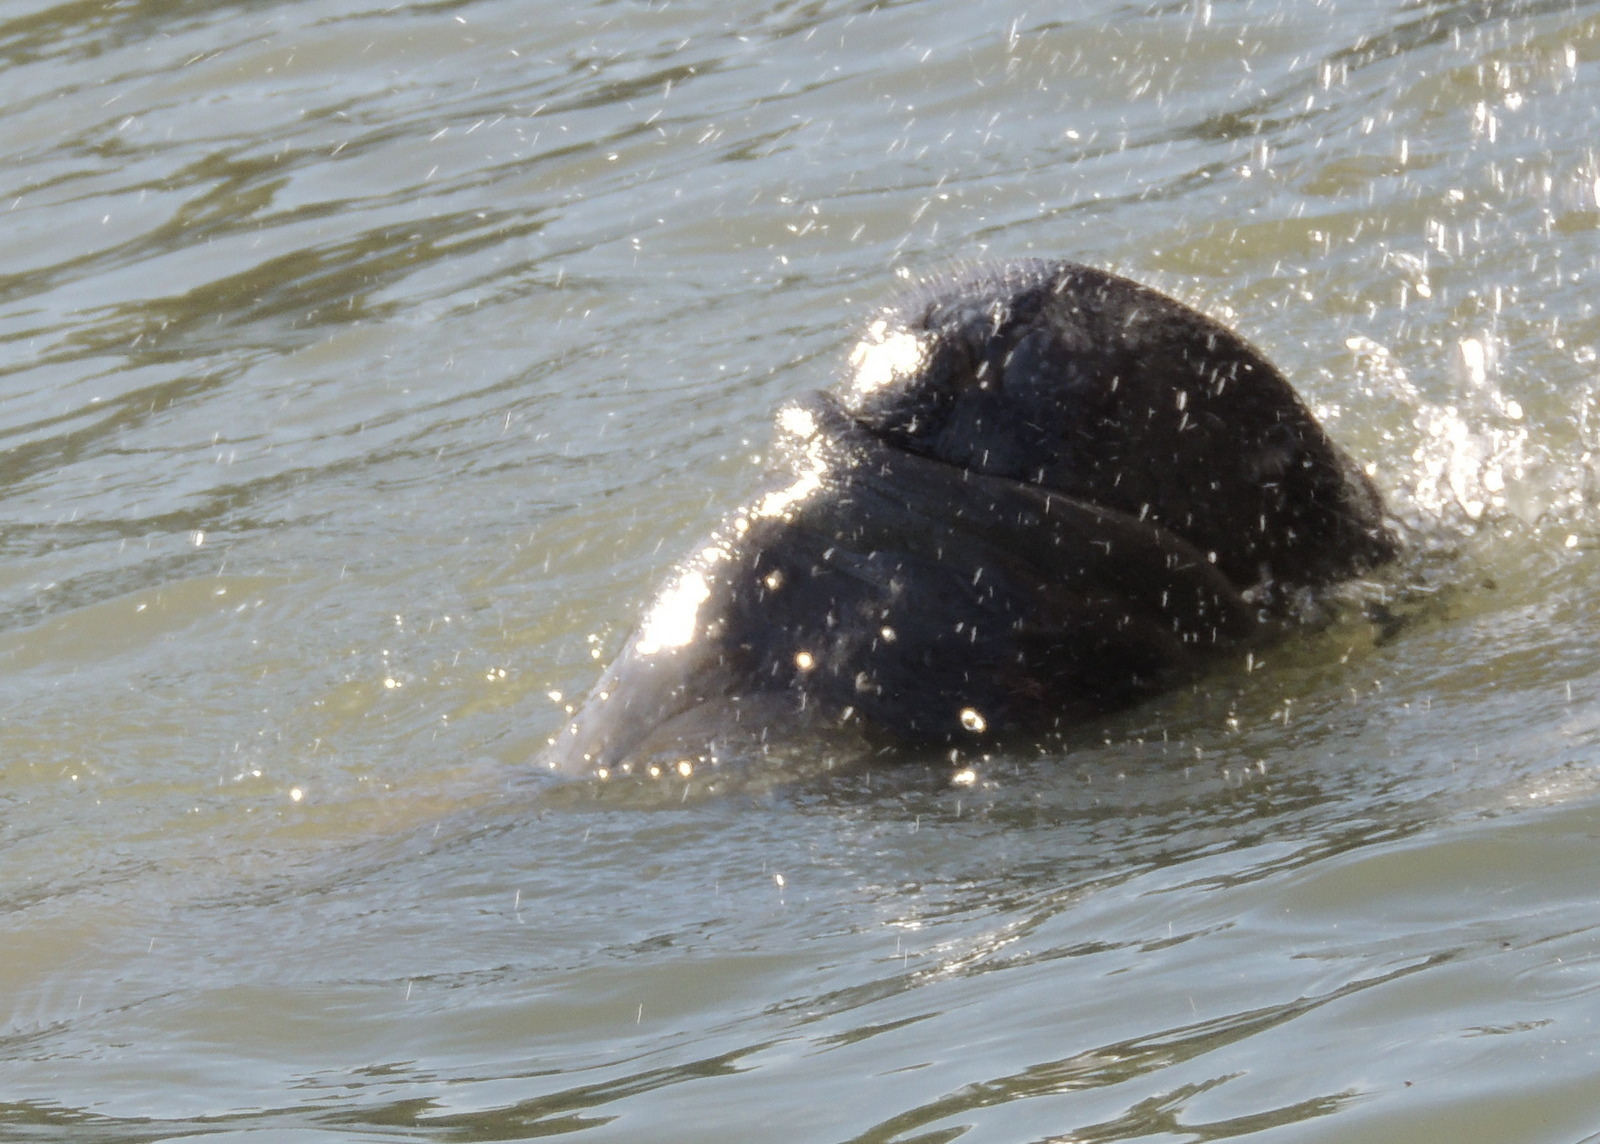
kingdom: Animalia
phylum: Chordata
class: Mammalia
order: Sirenia
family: Trichechidae
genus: Trichechus
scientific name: Trichechus manatus
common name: West indian manatee
